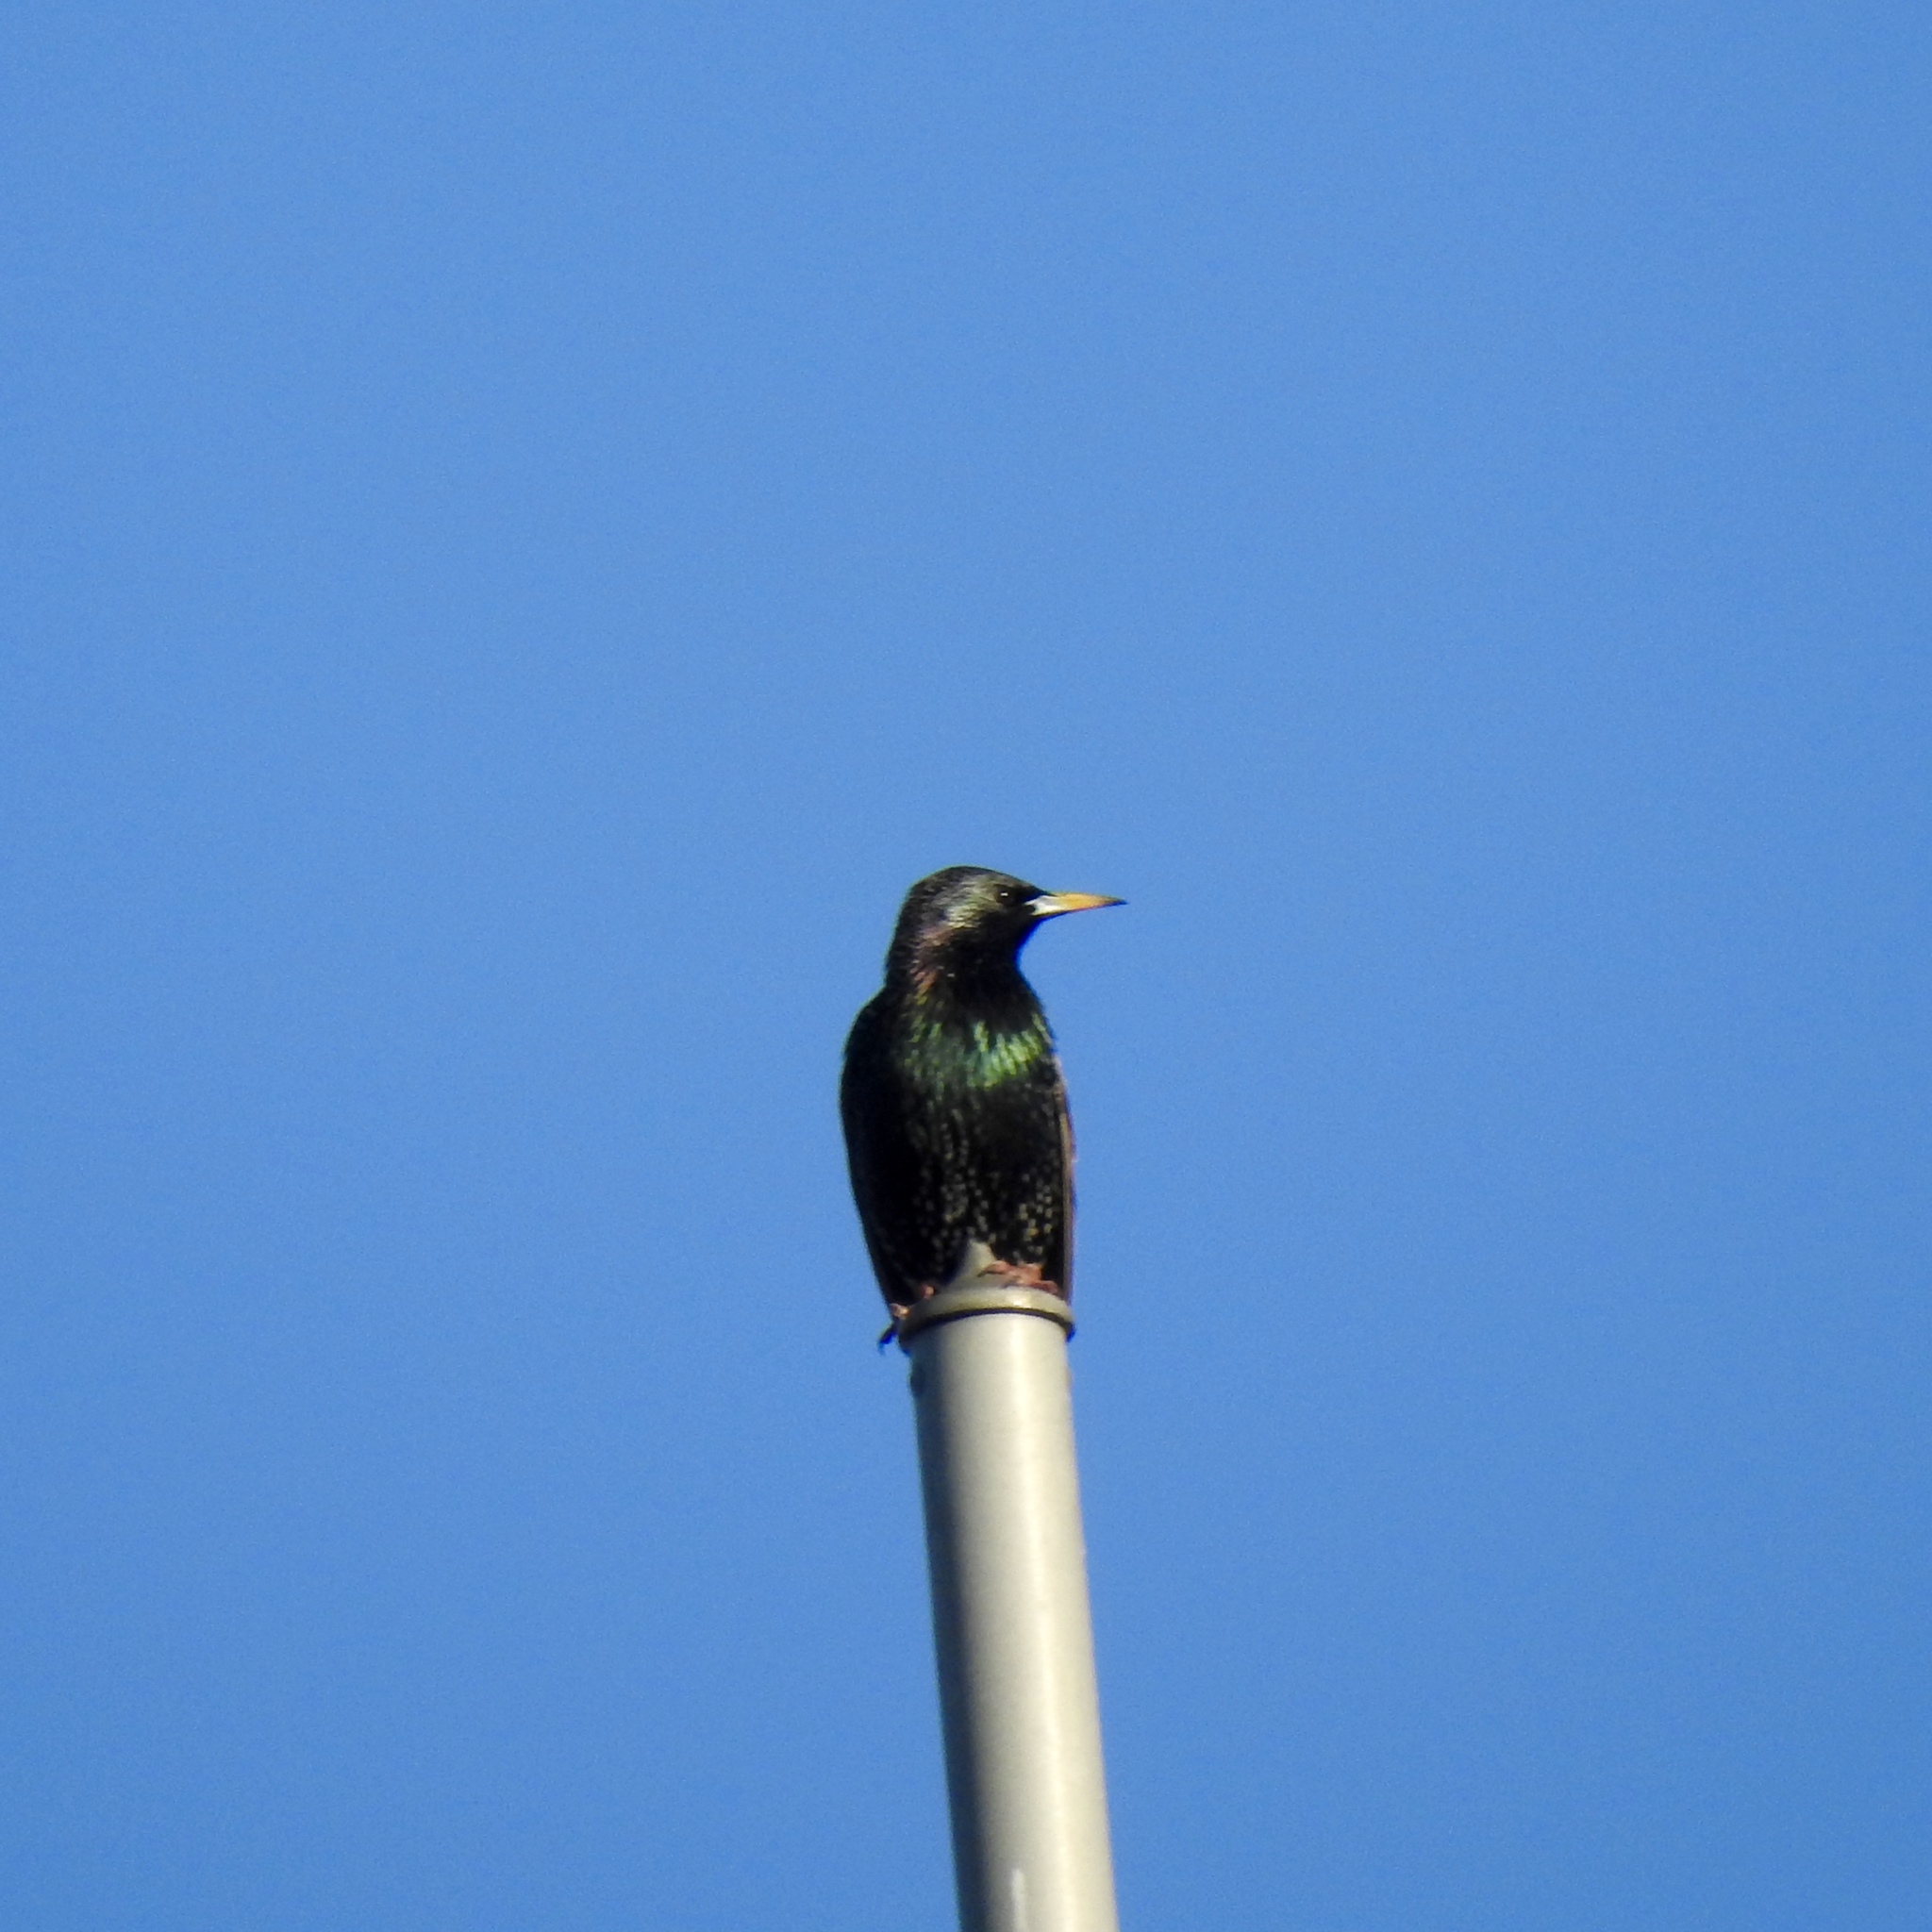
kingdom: Animalia
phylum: Chordata
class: Aves
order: Passeriformes
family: Sturnidae
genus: Sturnus
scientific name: Sturnus vulgaris
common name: Common starling
